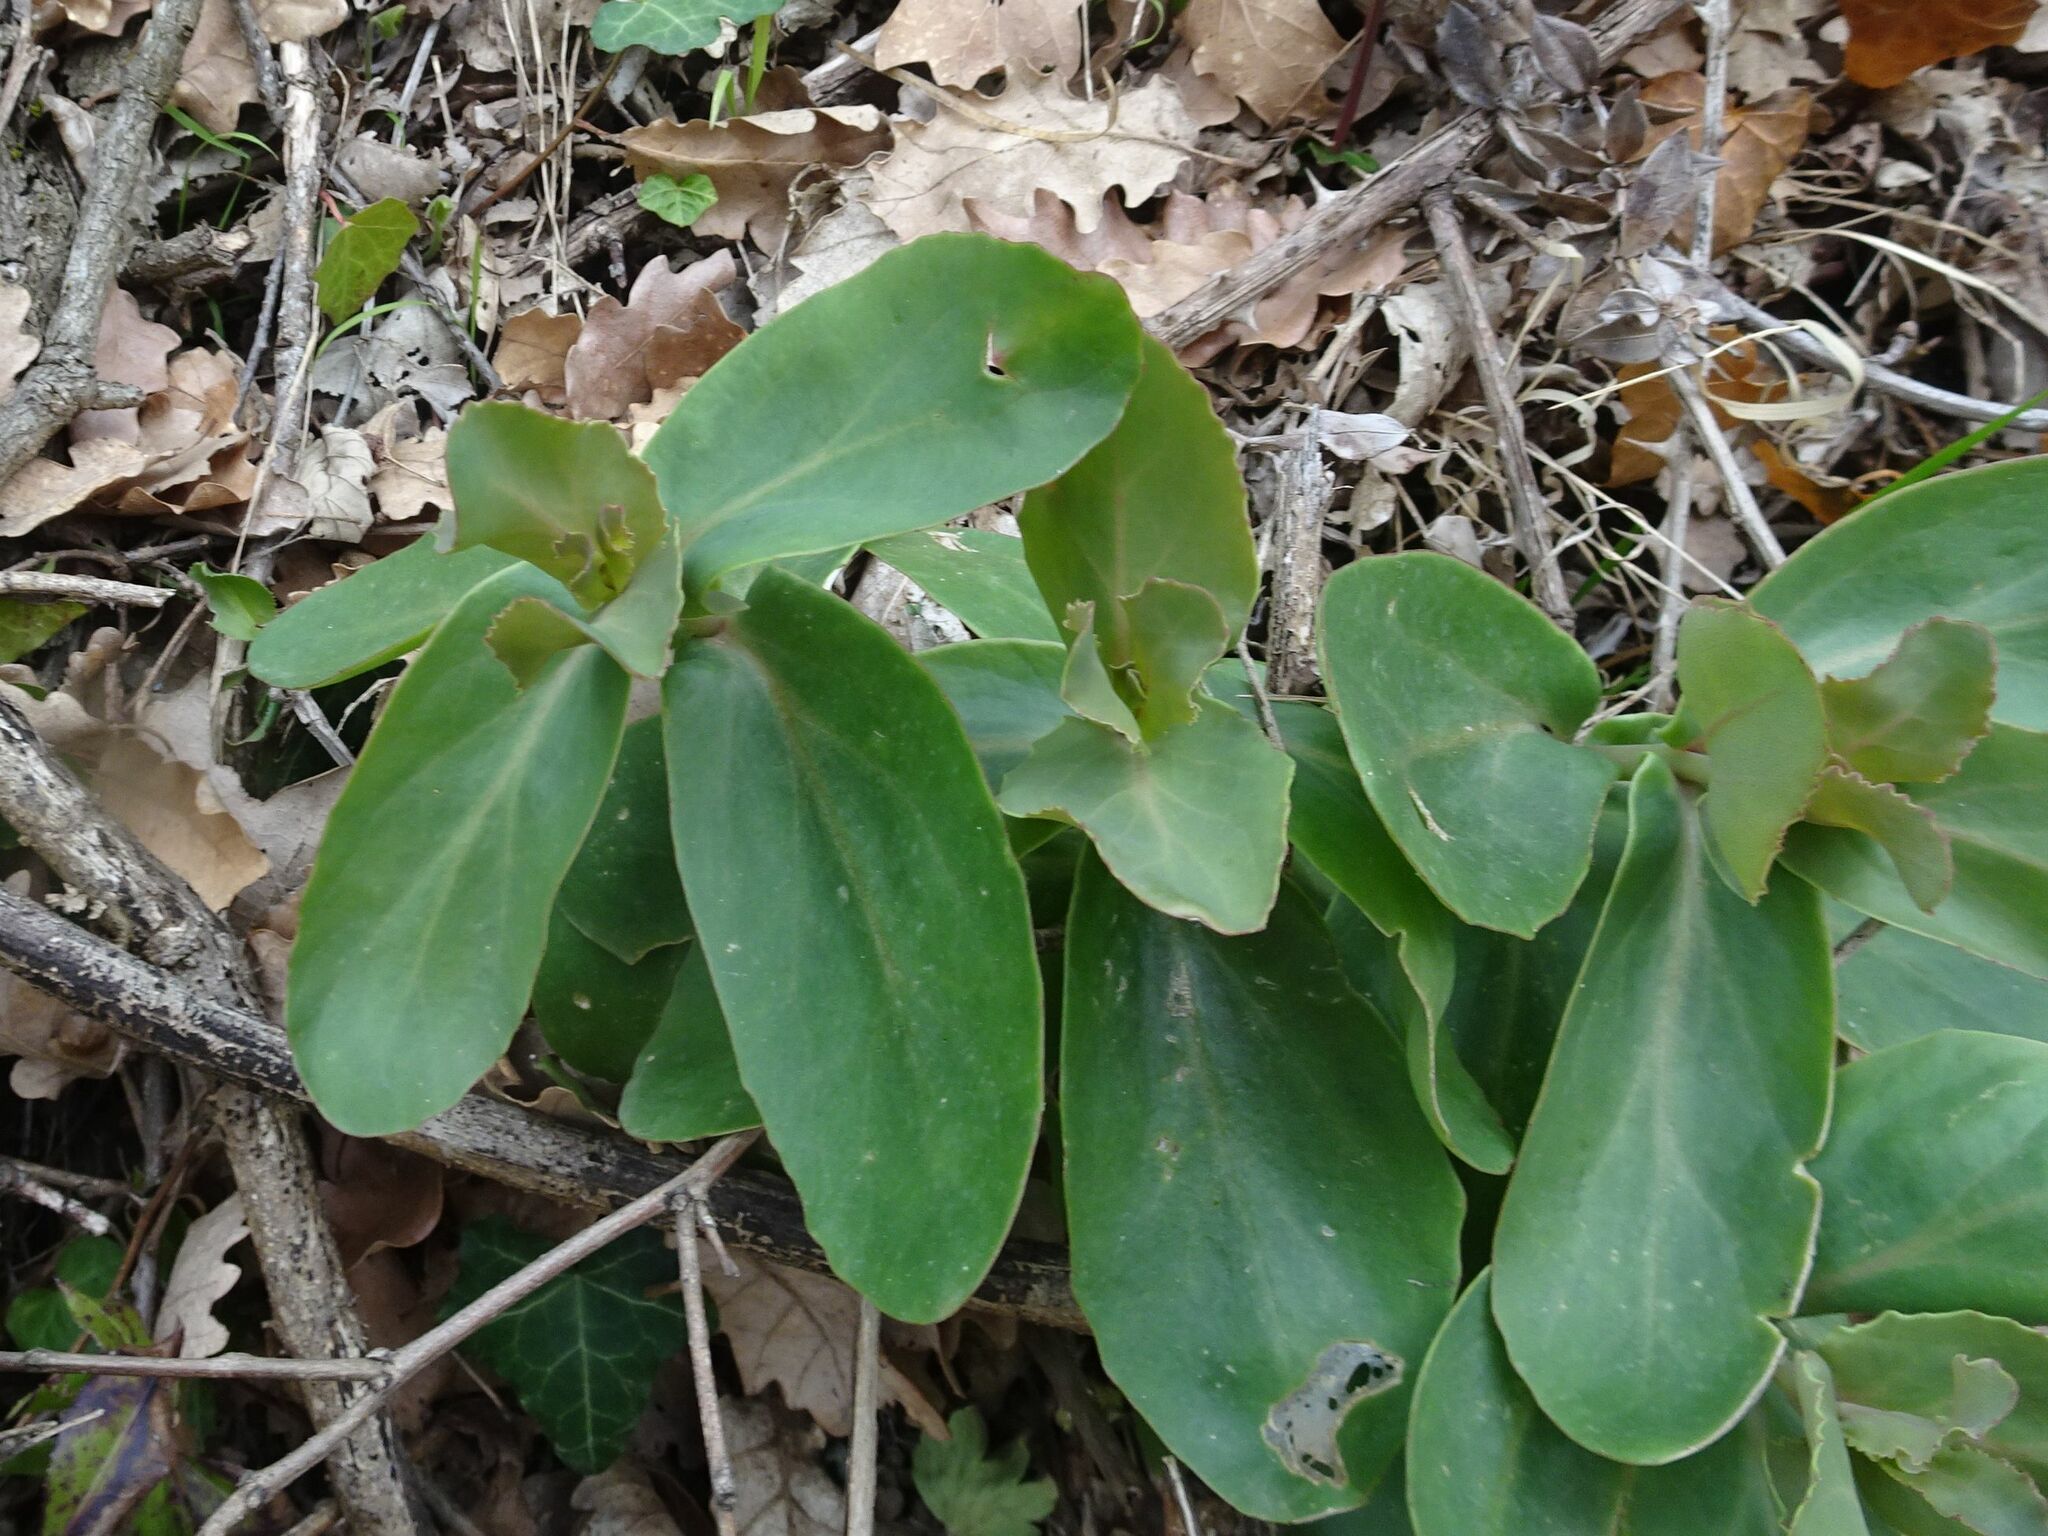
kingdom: Plantae
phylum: Tracheophyta
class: Magnoliopsida
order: Saxifragales
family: Crassulaceae
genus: Hylotelephium
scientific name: Hylotelephium maximum
